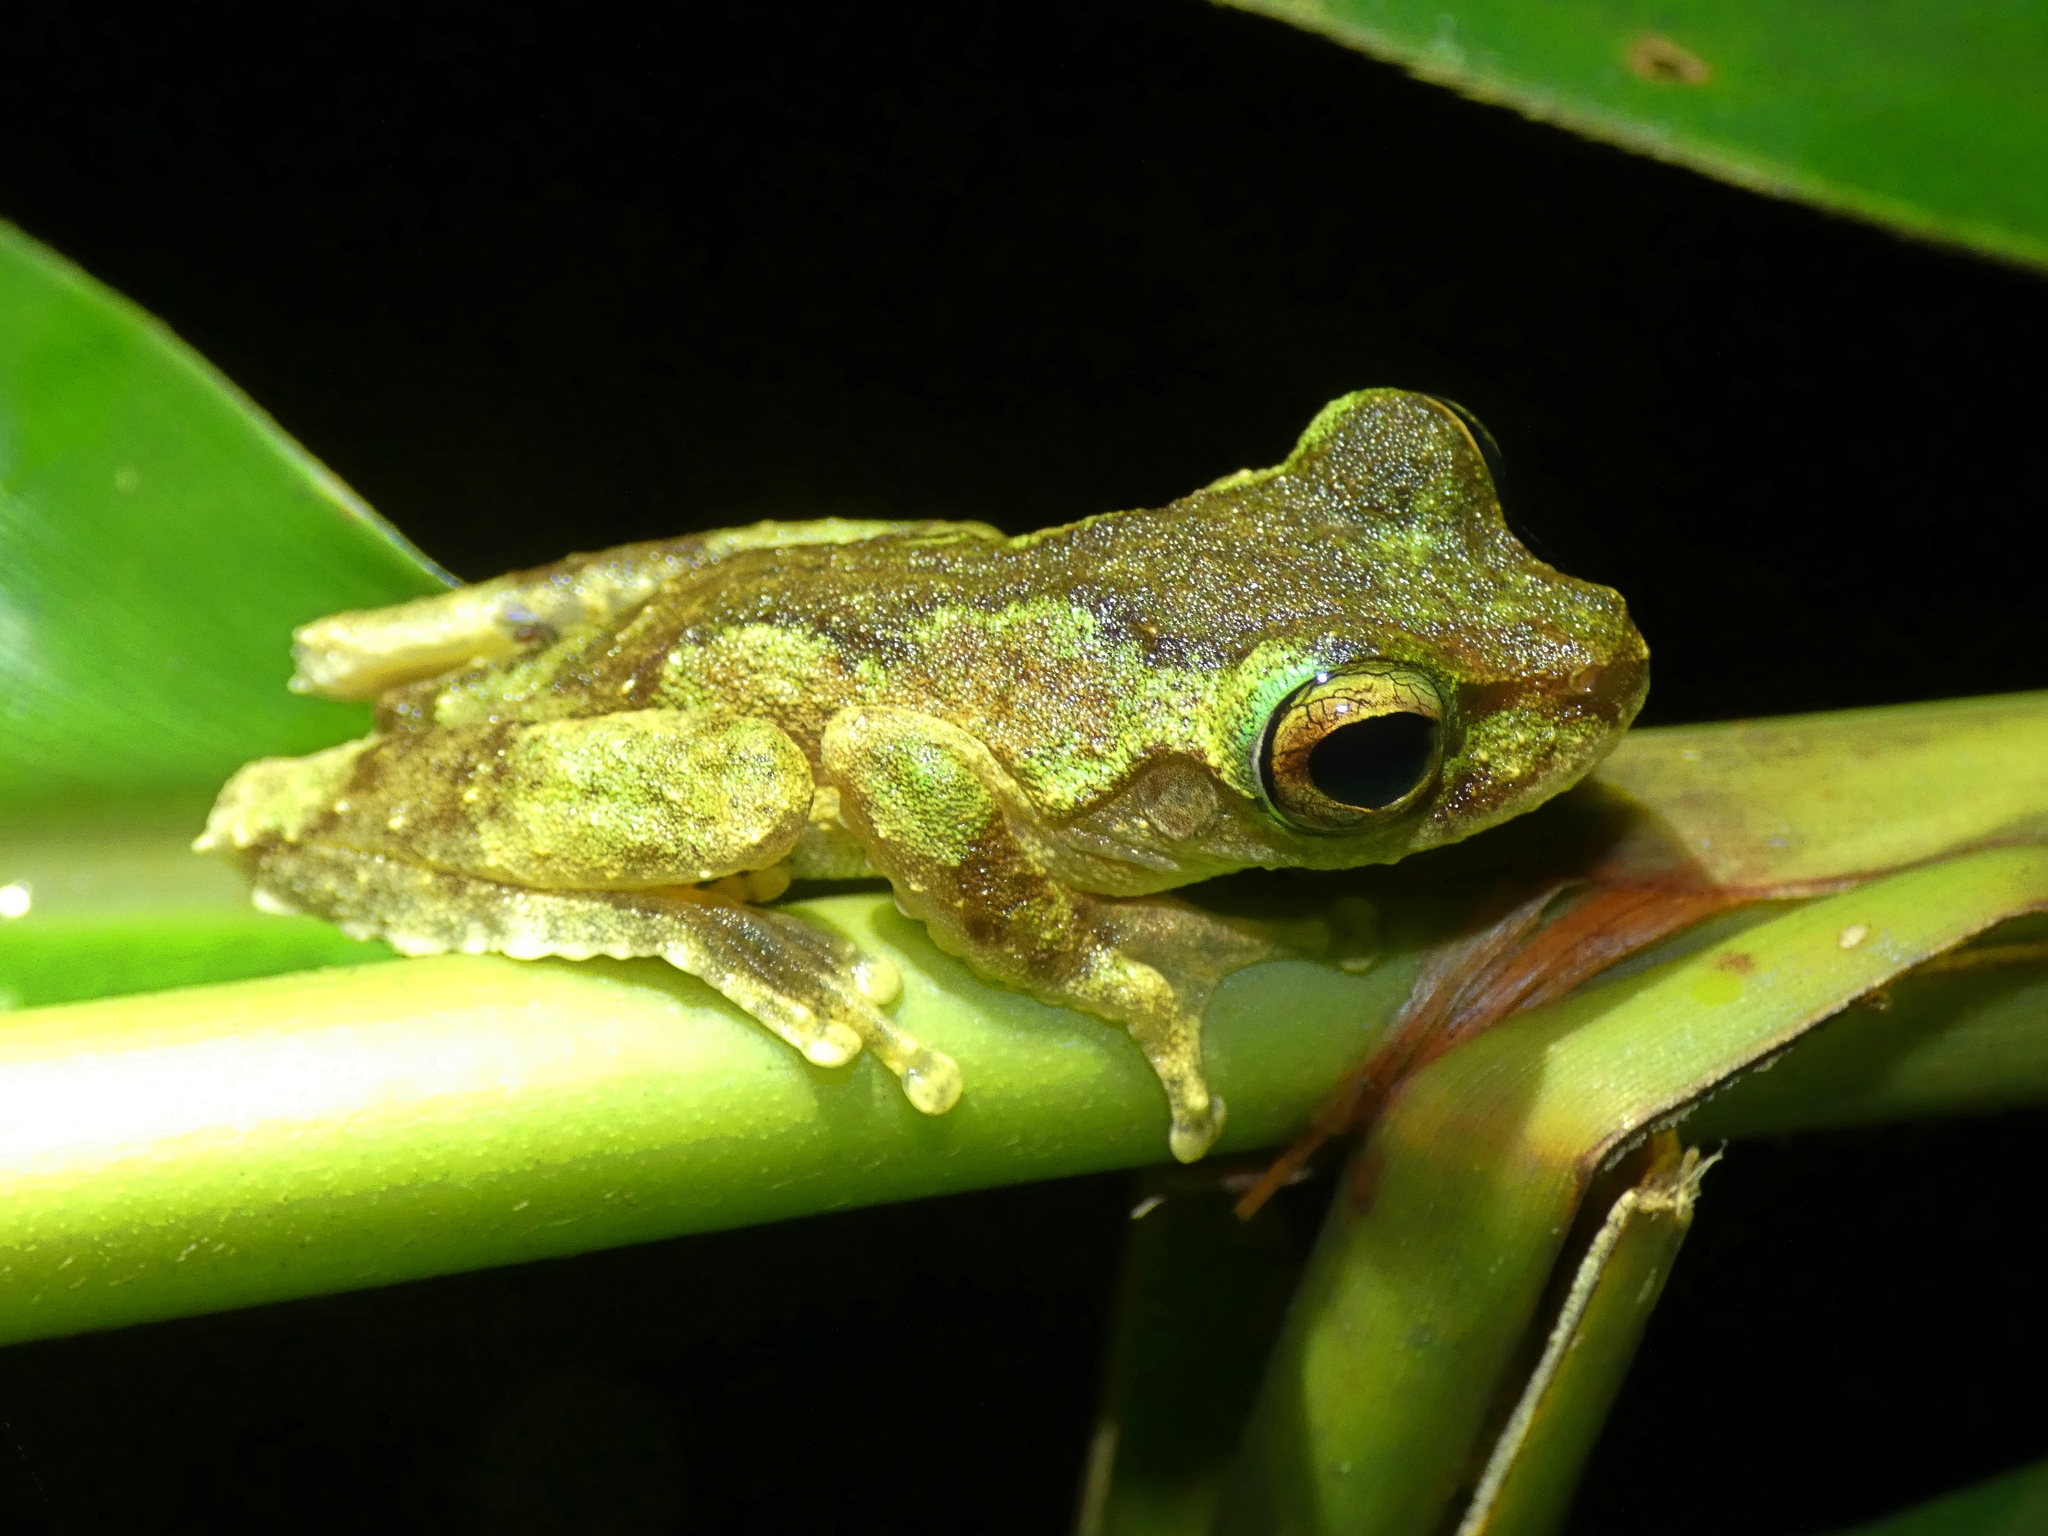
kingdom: Animalia
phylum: Chordata
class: Amphibia
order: Anura
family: Pelodryadidae
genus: Ranoidea
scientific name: Ranoidea serrata
